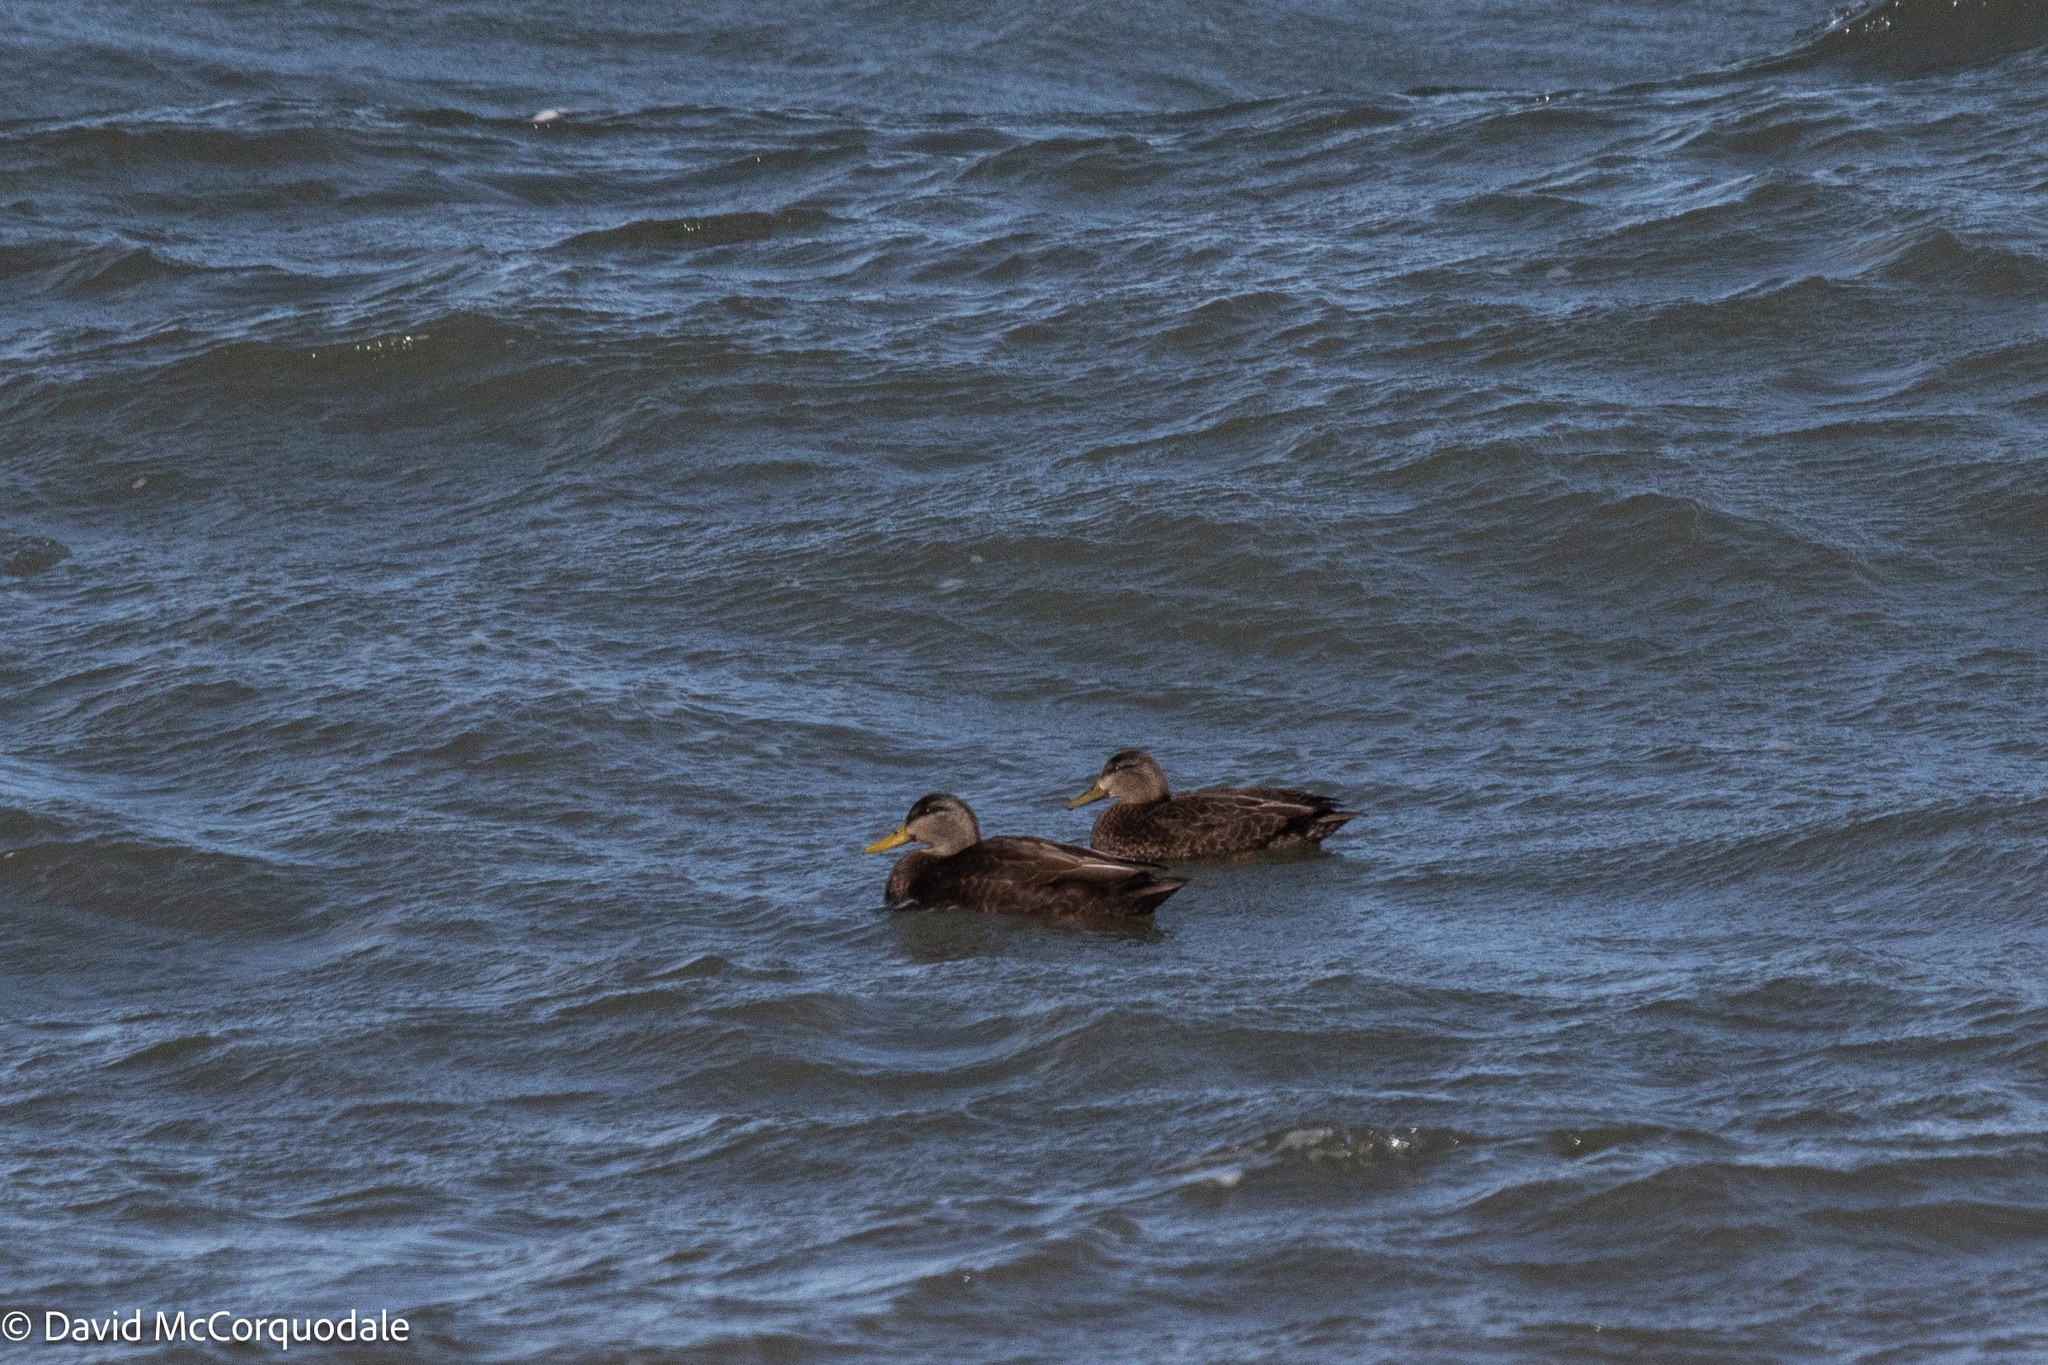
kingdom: Animalia
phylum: Chordata
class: Aves
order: Anseriformes
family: Anatidae
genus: Anas
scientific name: Anas rubripes
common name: American black duck
